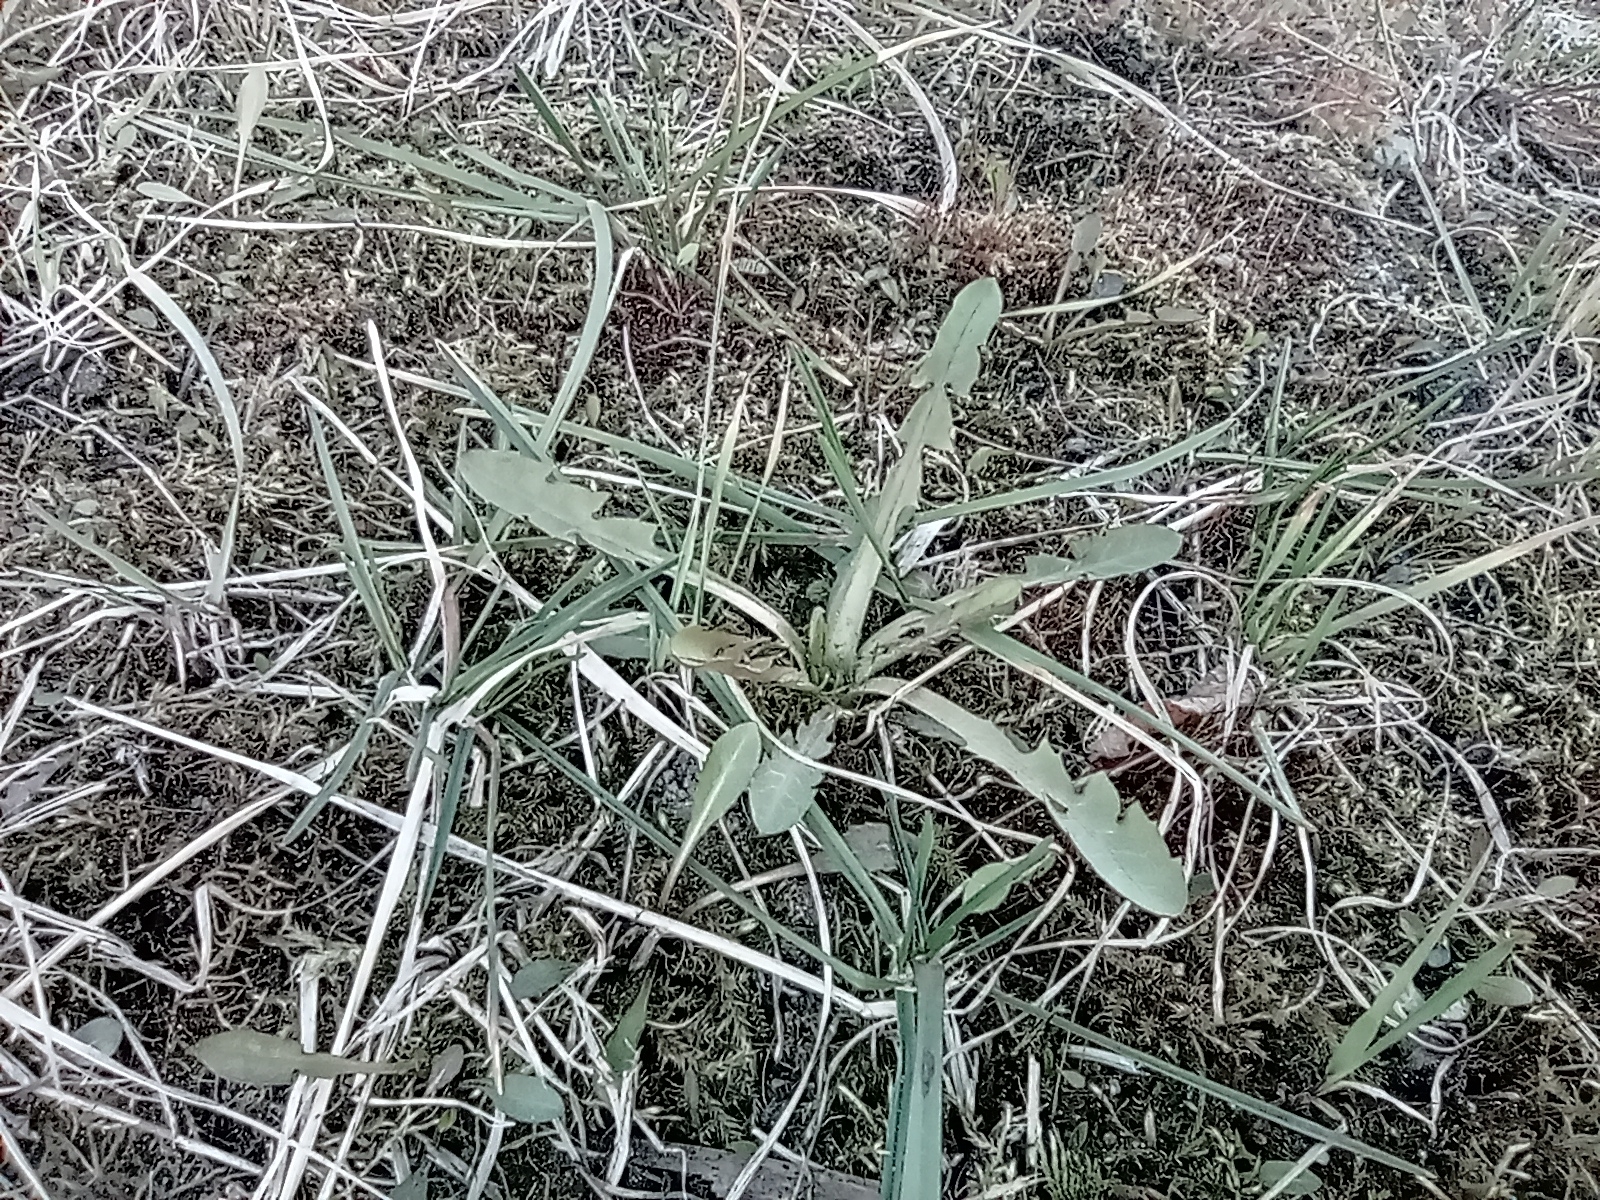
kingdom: Plantae
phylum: Tracheophyta
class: Magnoliopsida
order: Asterales
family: Asteraceae
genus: Taraxacum
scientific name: Taraxacum officinale
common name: Common dandelion
